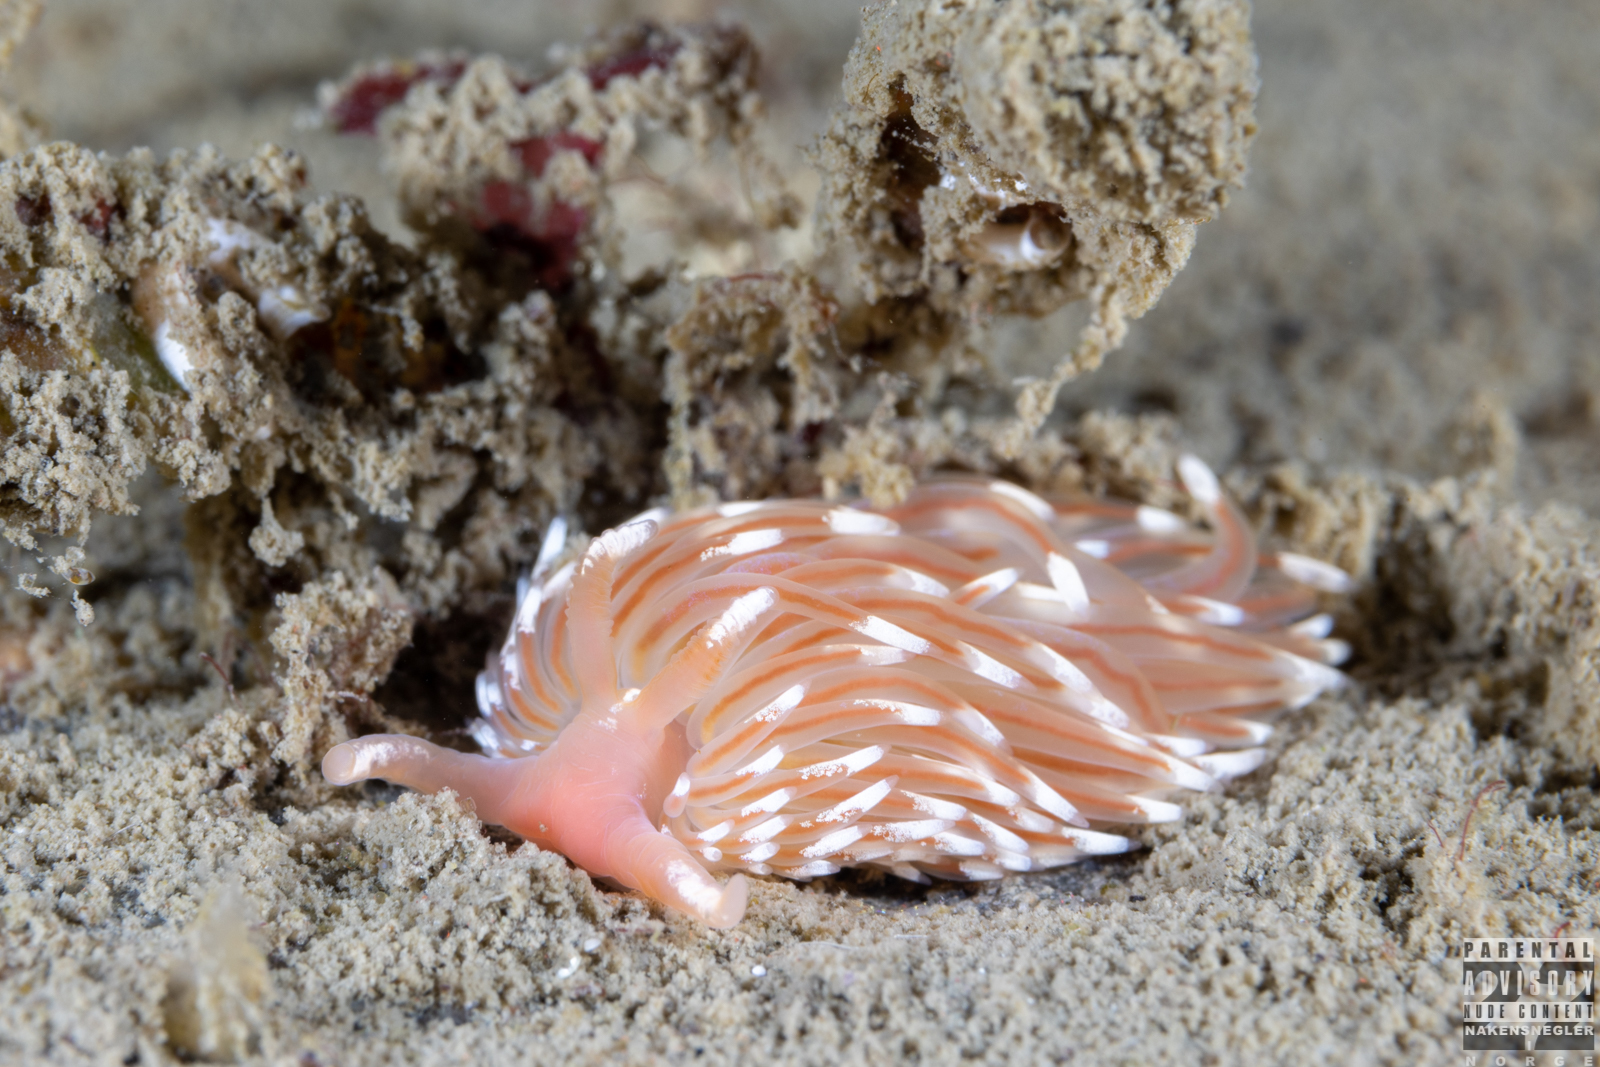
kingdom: Animalia
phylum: Mollusca
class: Gastropoda
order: Nudibranchia
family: Facelinidae
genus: Facelina
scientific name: Facelina bostoniensis
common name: Boston facelina
